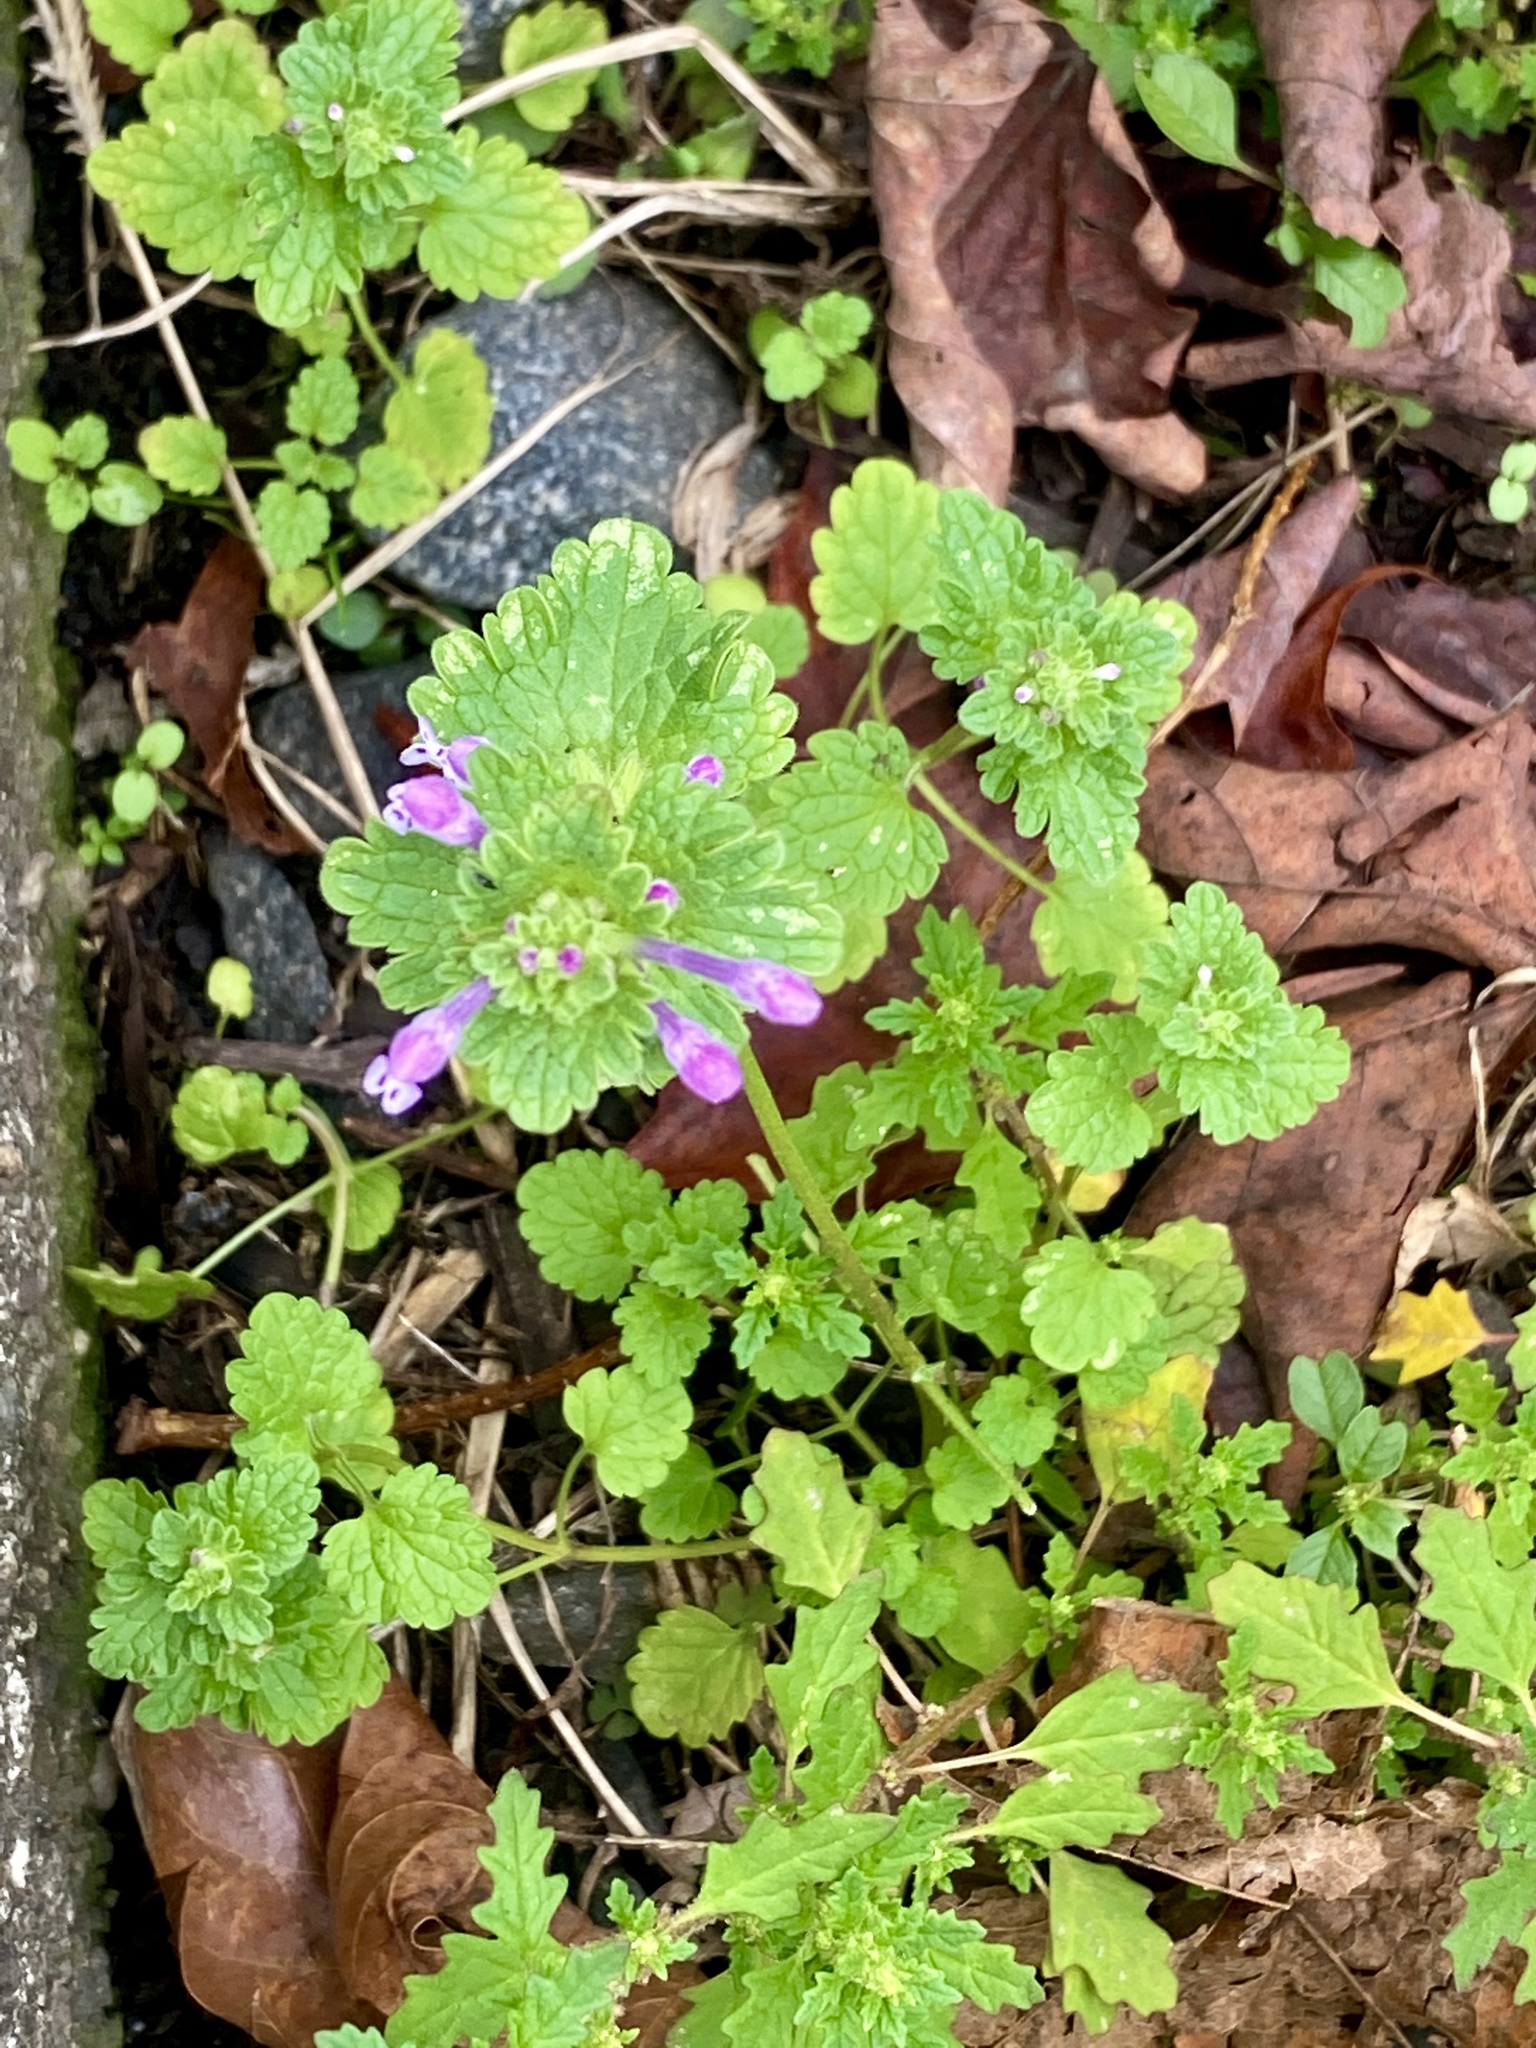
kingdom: Plantae
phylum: Tracheophyta
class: Magnoliopsida
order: Lamiales
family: Lamiaceae
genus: Lamium
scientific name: Lamium amplexicaule
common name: Henbit dead-nettle
